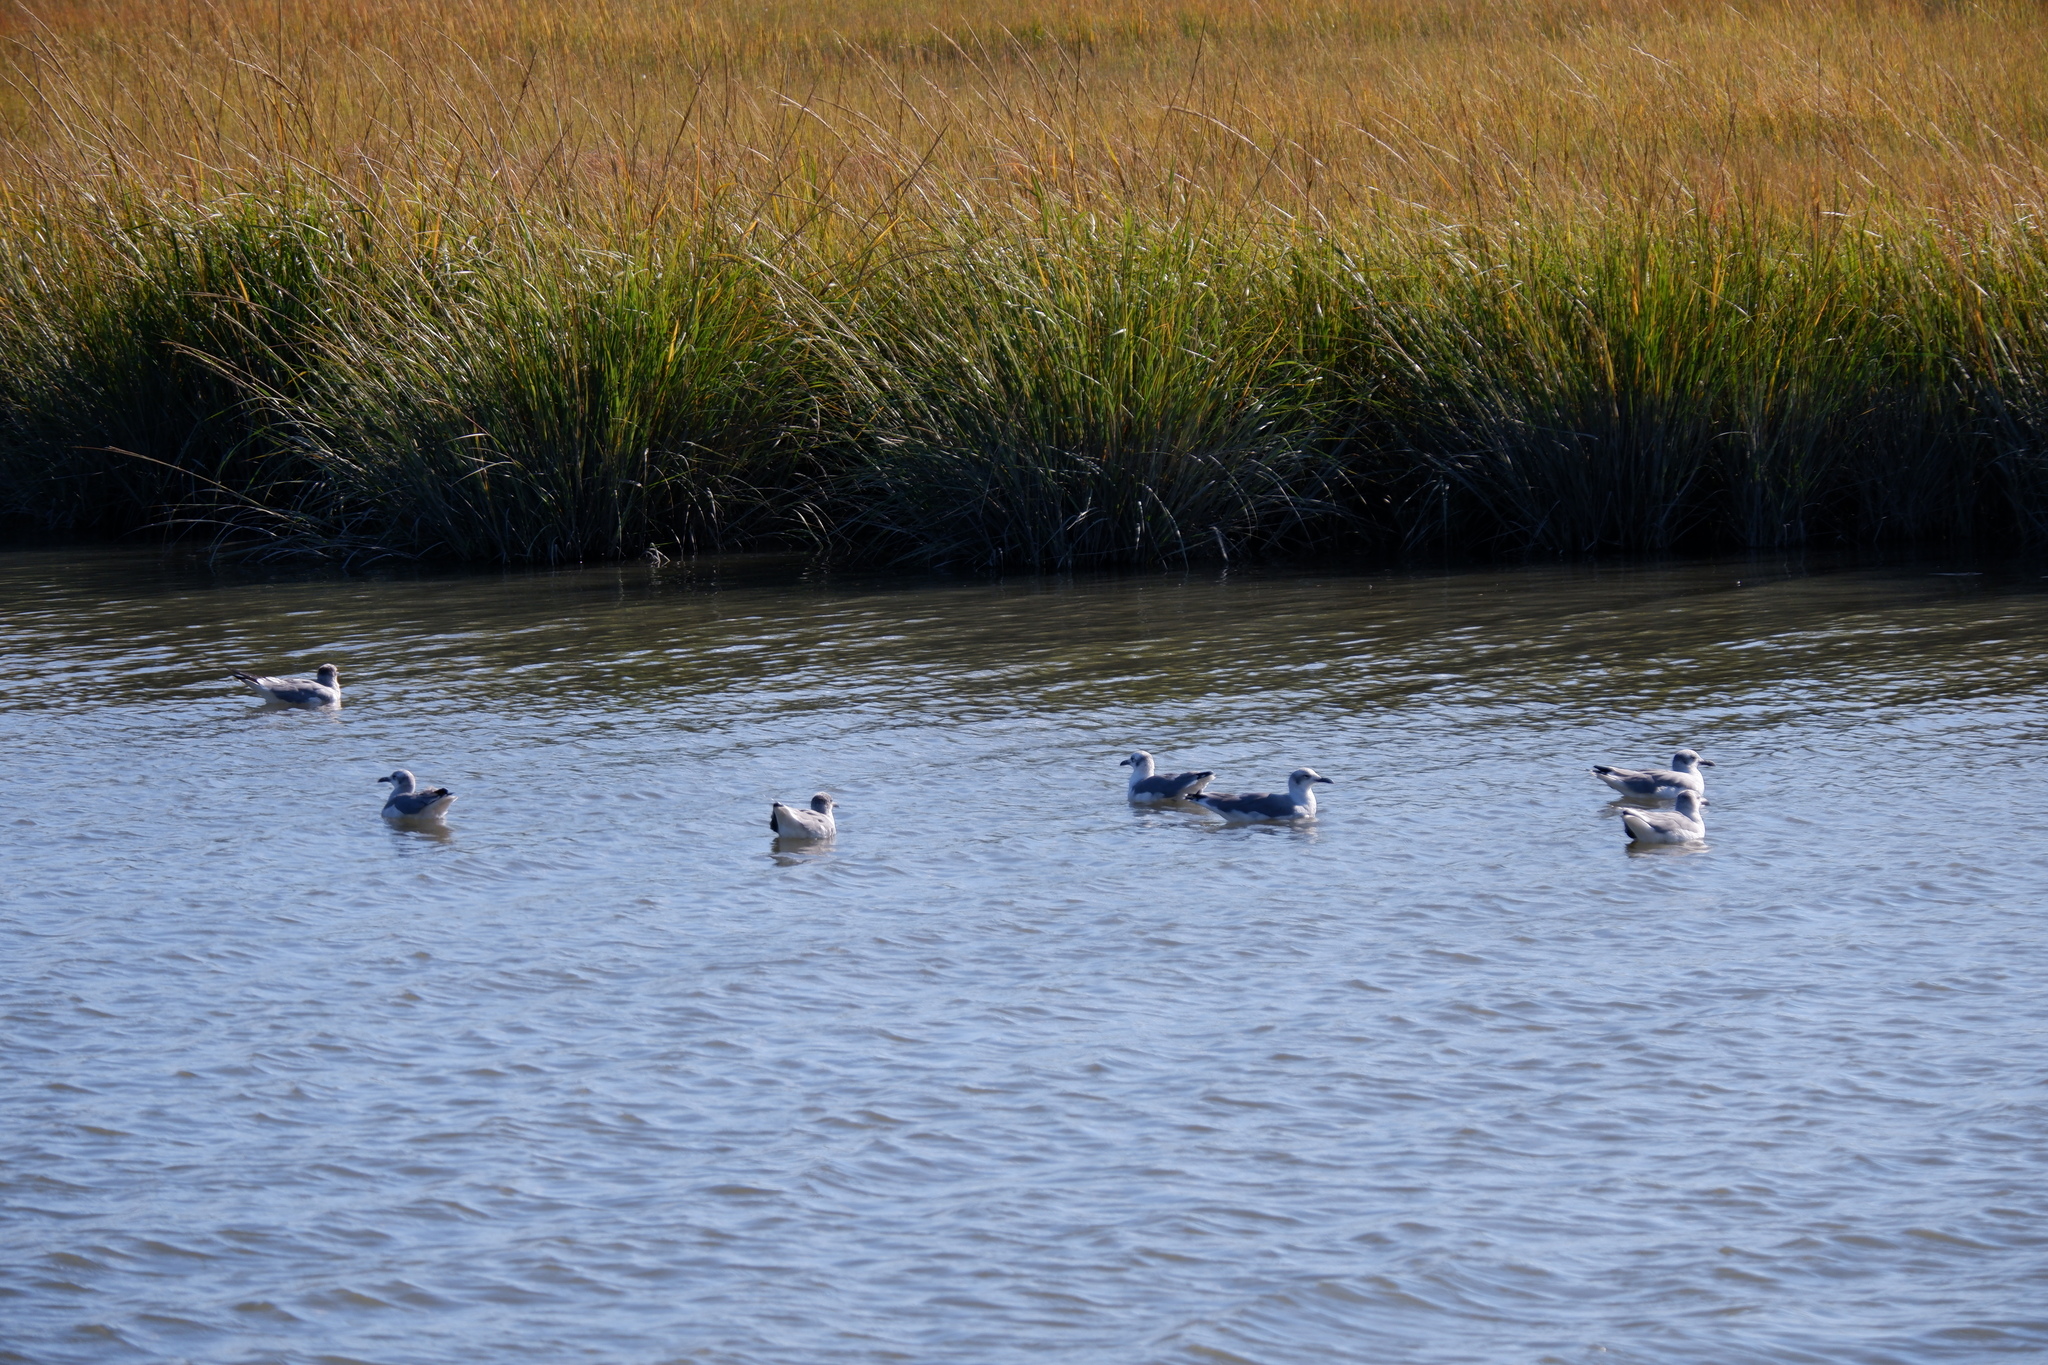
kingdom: Animalia
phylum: Chordata
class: Aves
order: Charadriiformes
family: Laridae
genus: Leucophaeus
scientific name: Leucophaeus atricilla
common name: Laughing gull
